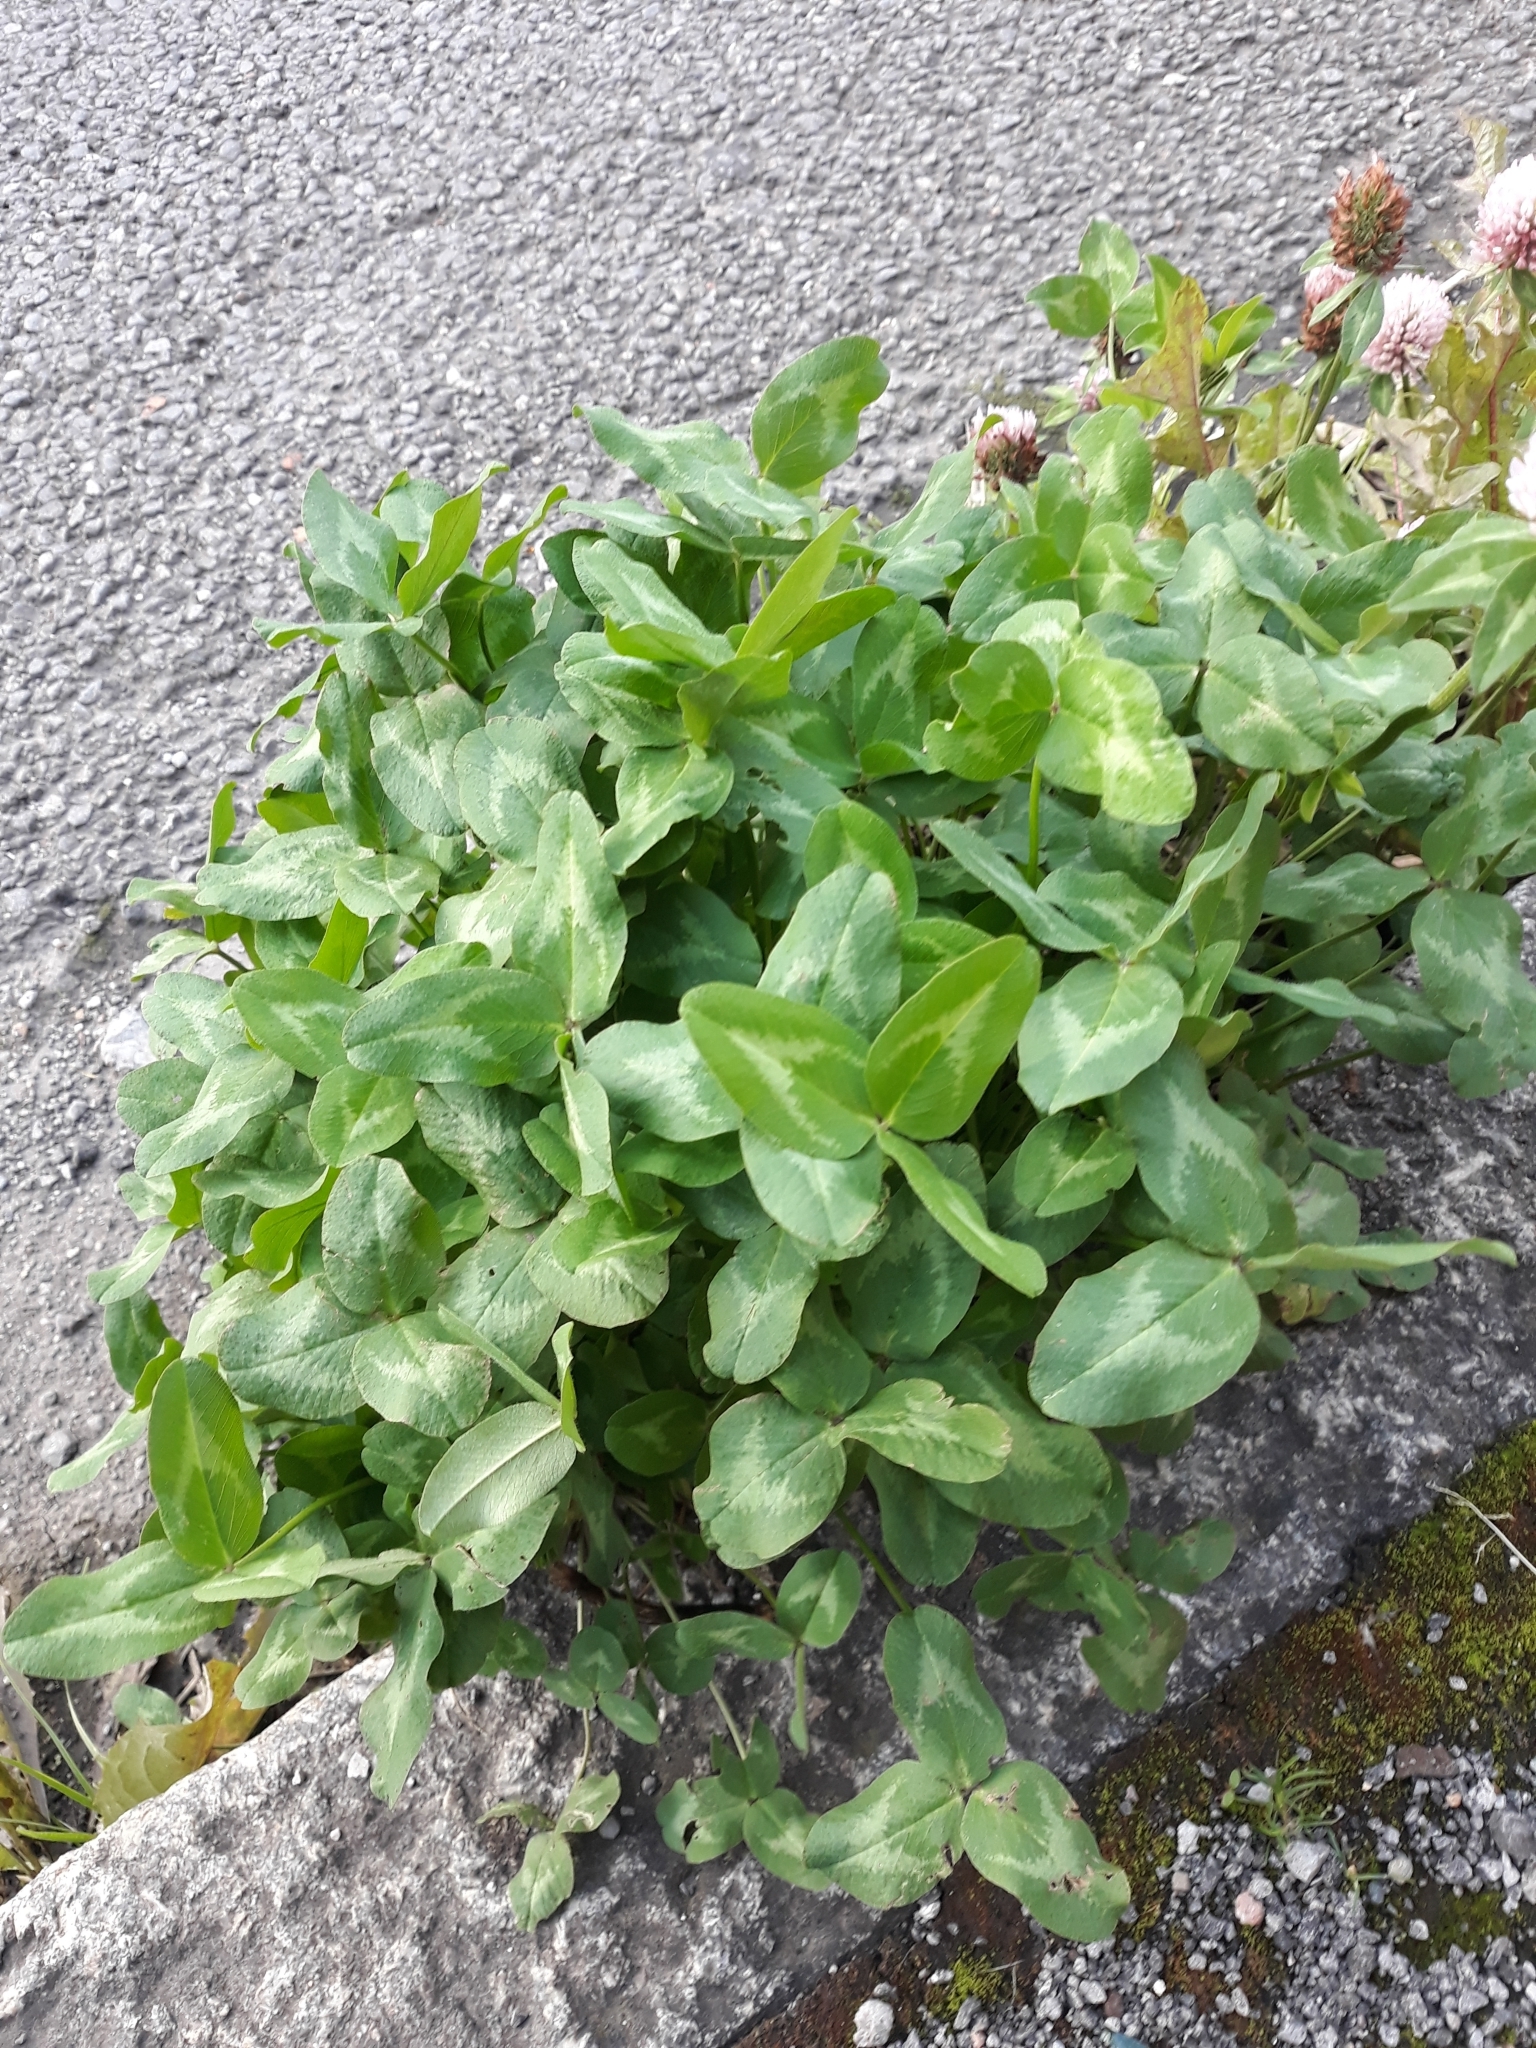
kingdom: Plantae
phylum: Tracheophyta
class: Magnoliopsida
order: Fabales
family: Fabaceae
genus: Trifolium
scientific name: Trifolium pratense
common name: Red clover
